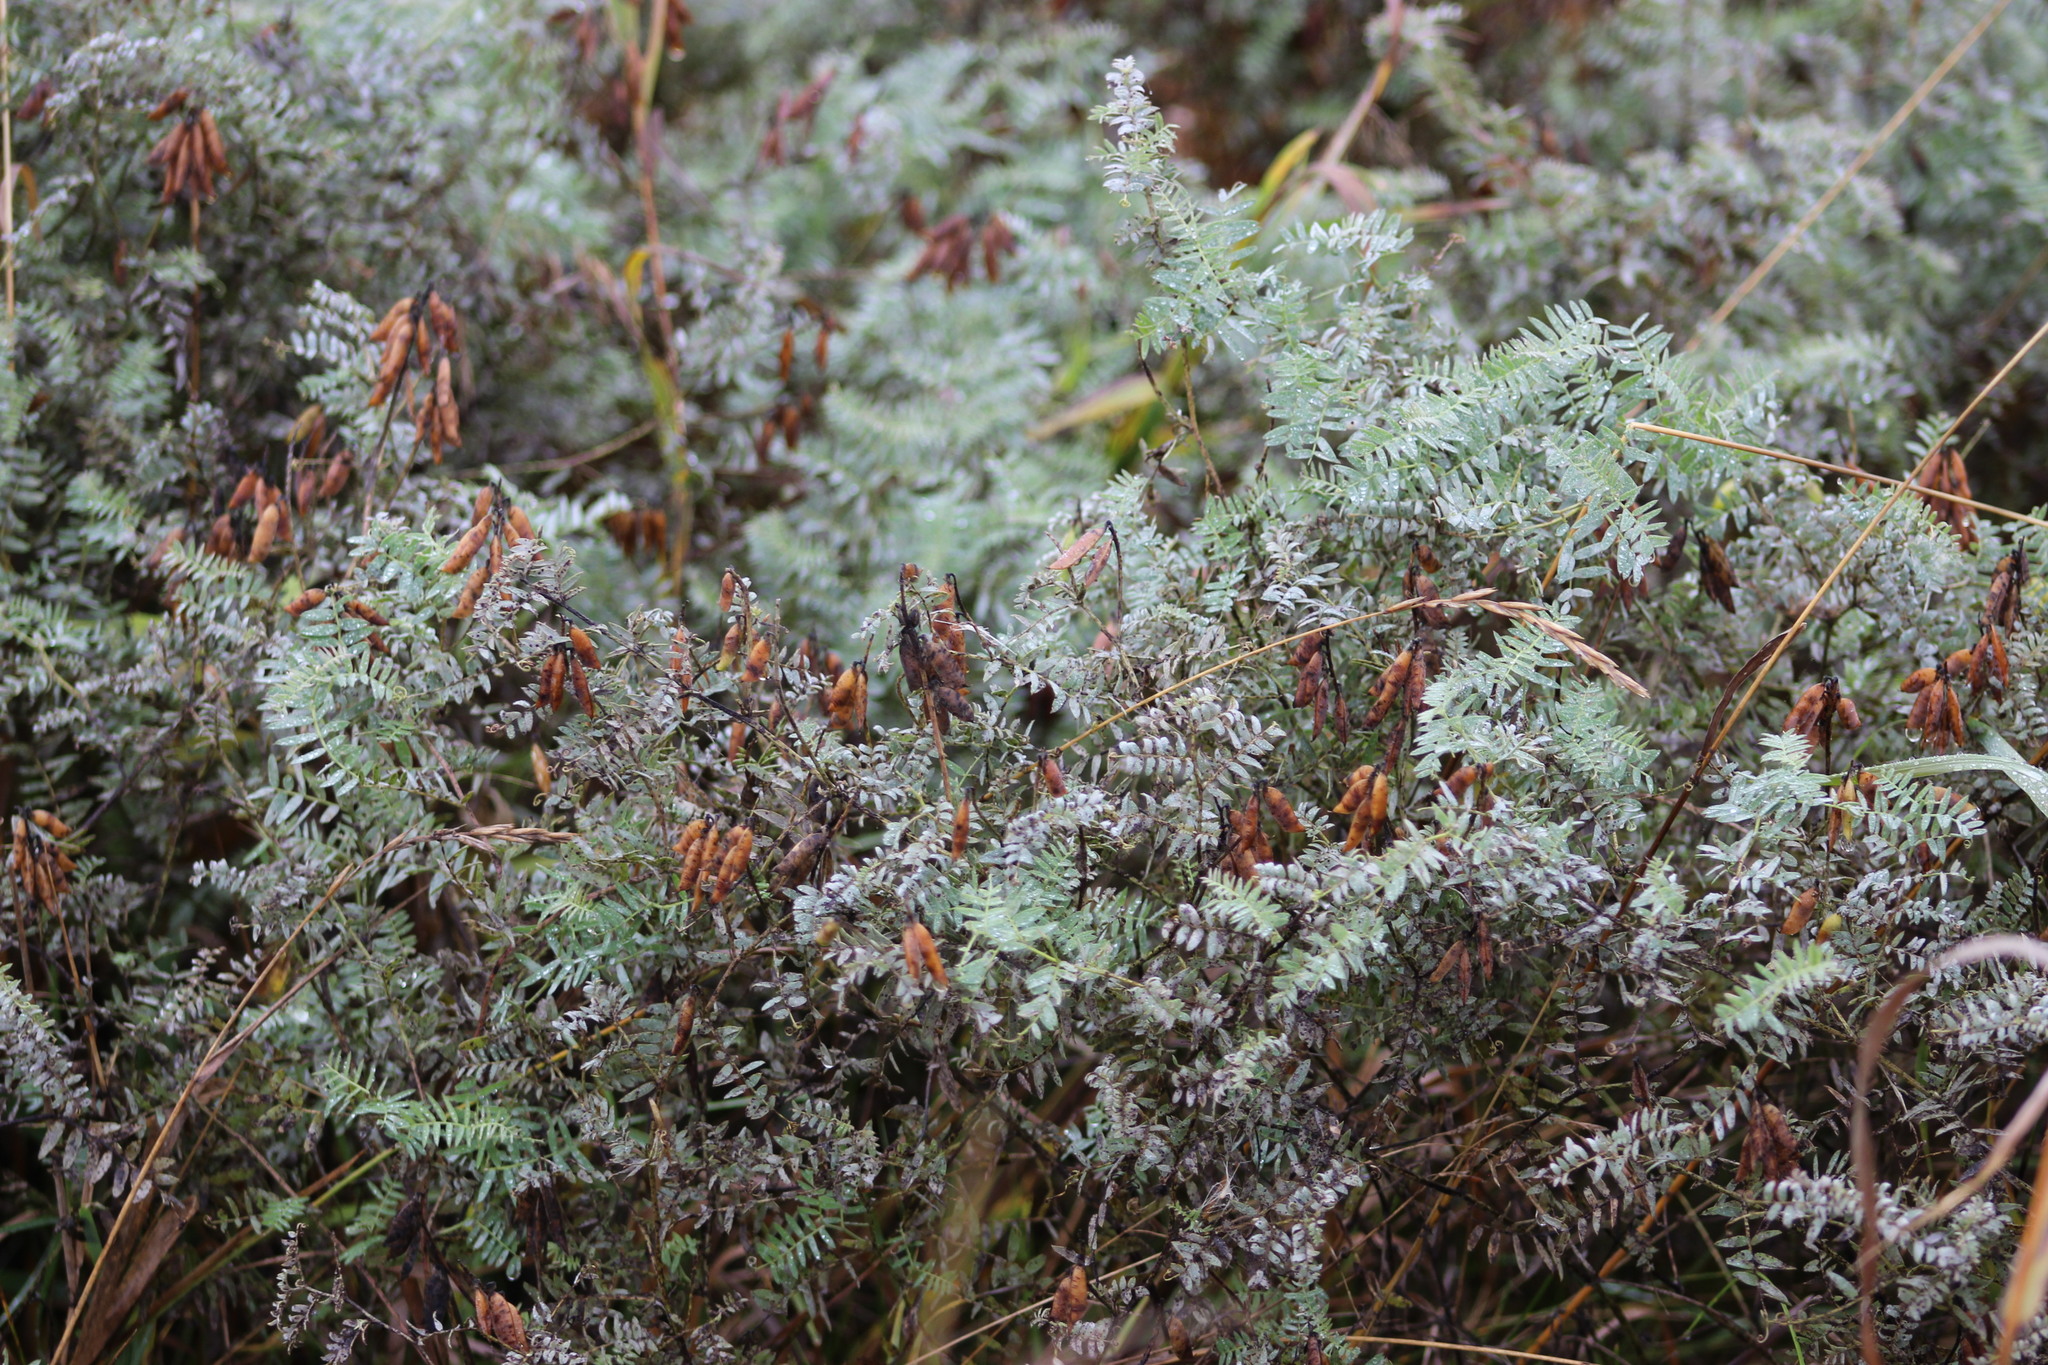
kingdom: Plantae
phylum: Tracheophyta
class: Magnoliopsida
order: Fabales
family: Fabaceae
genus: Vicia
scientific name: Vicia cracca
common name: Bird vetch
